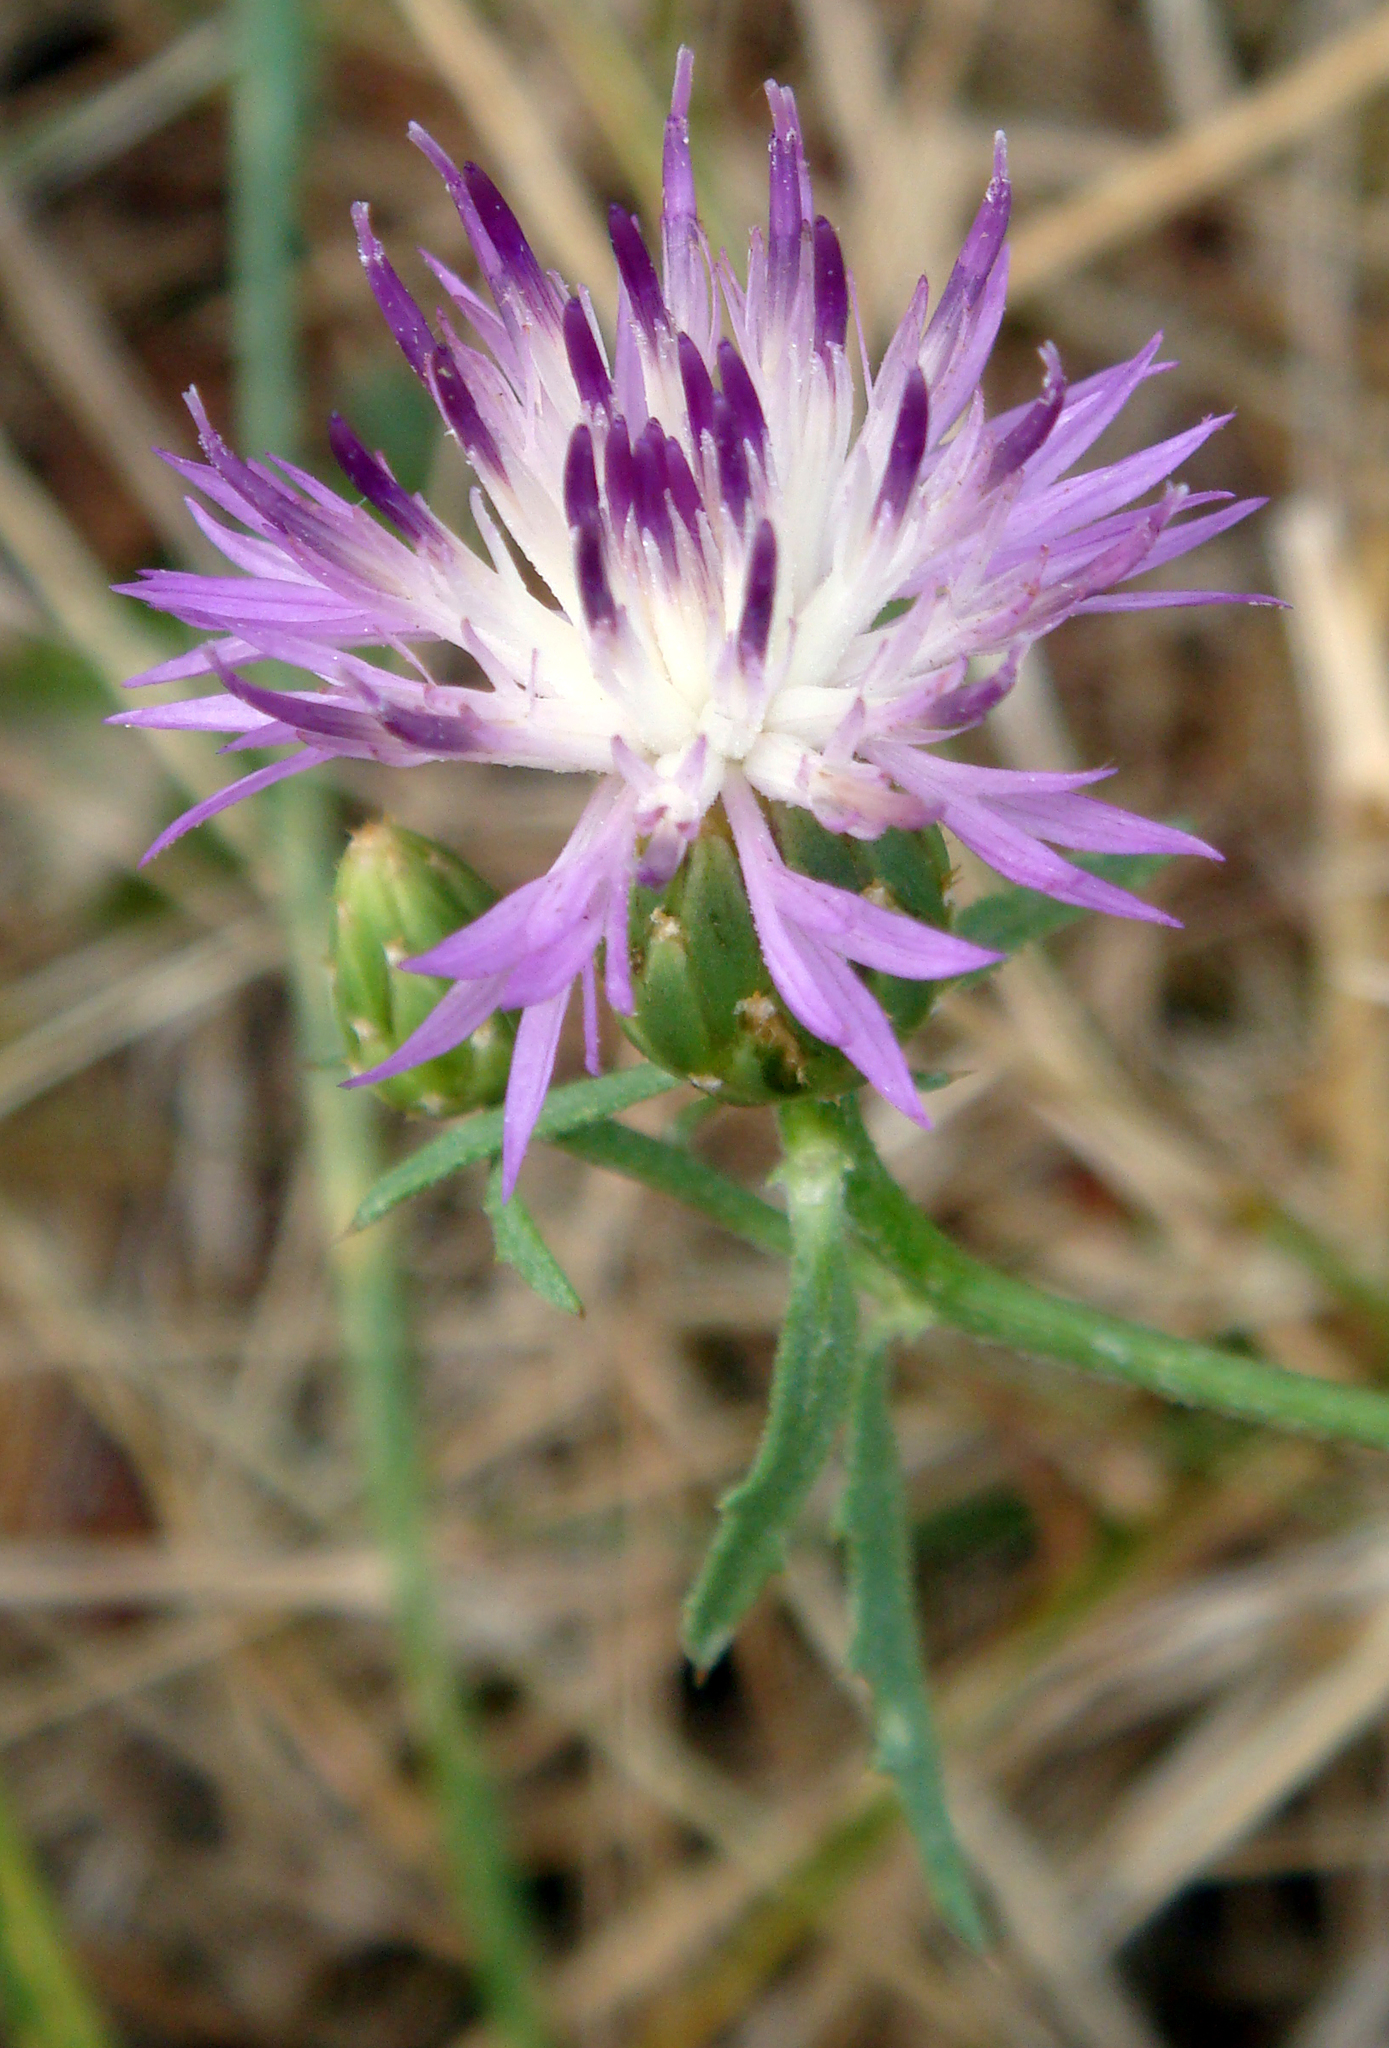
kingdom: Plantae
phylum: Tracheophyta
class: Magnoliopsida
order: Asterales
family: Asteraceae
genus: Centaurea
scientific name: Centaurea aspera
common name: Rough star-thistle
